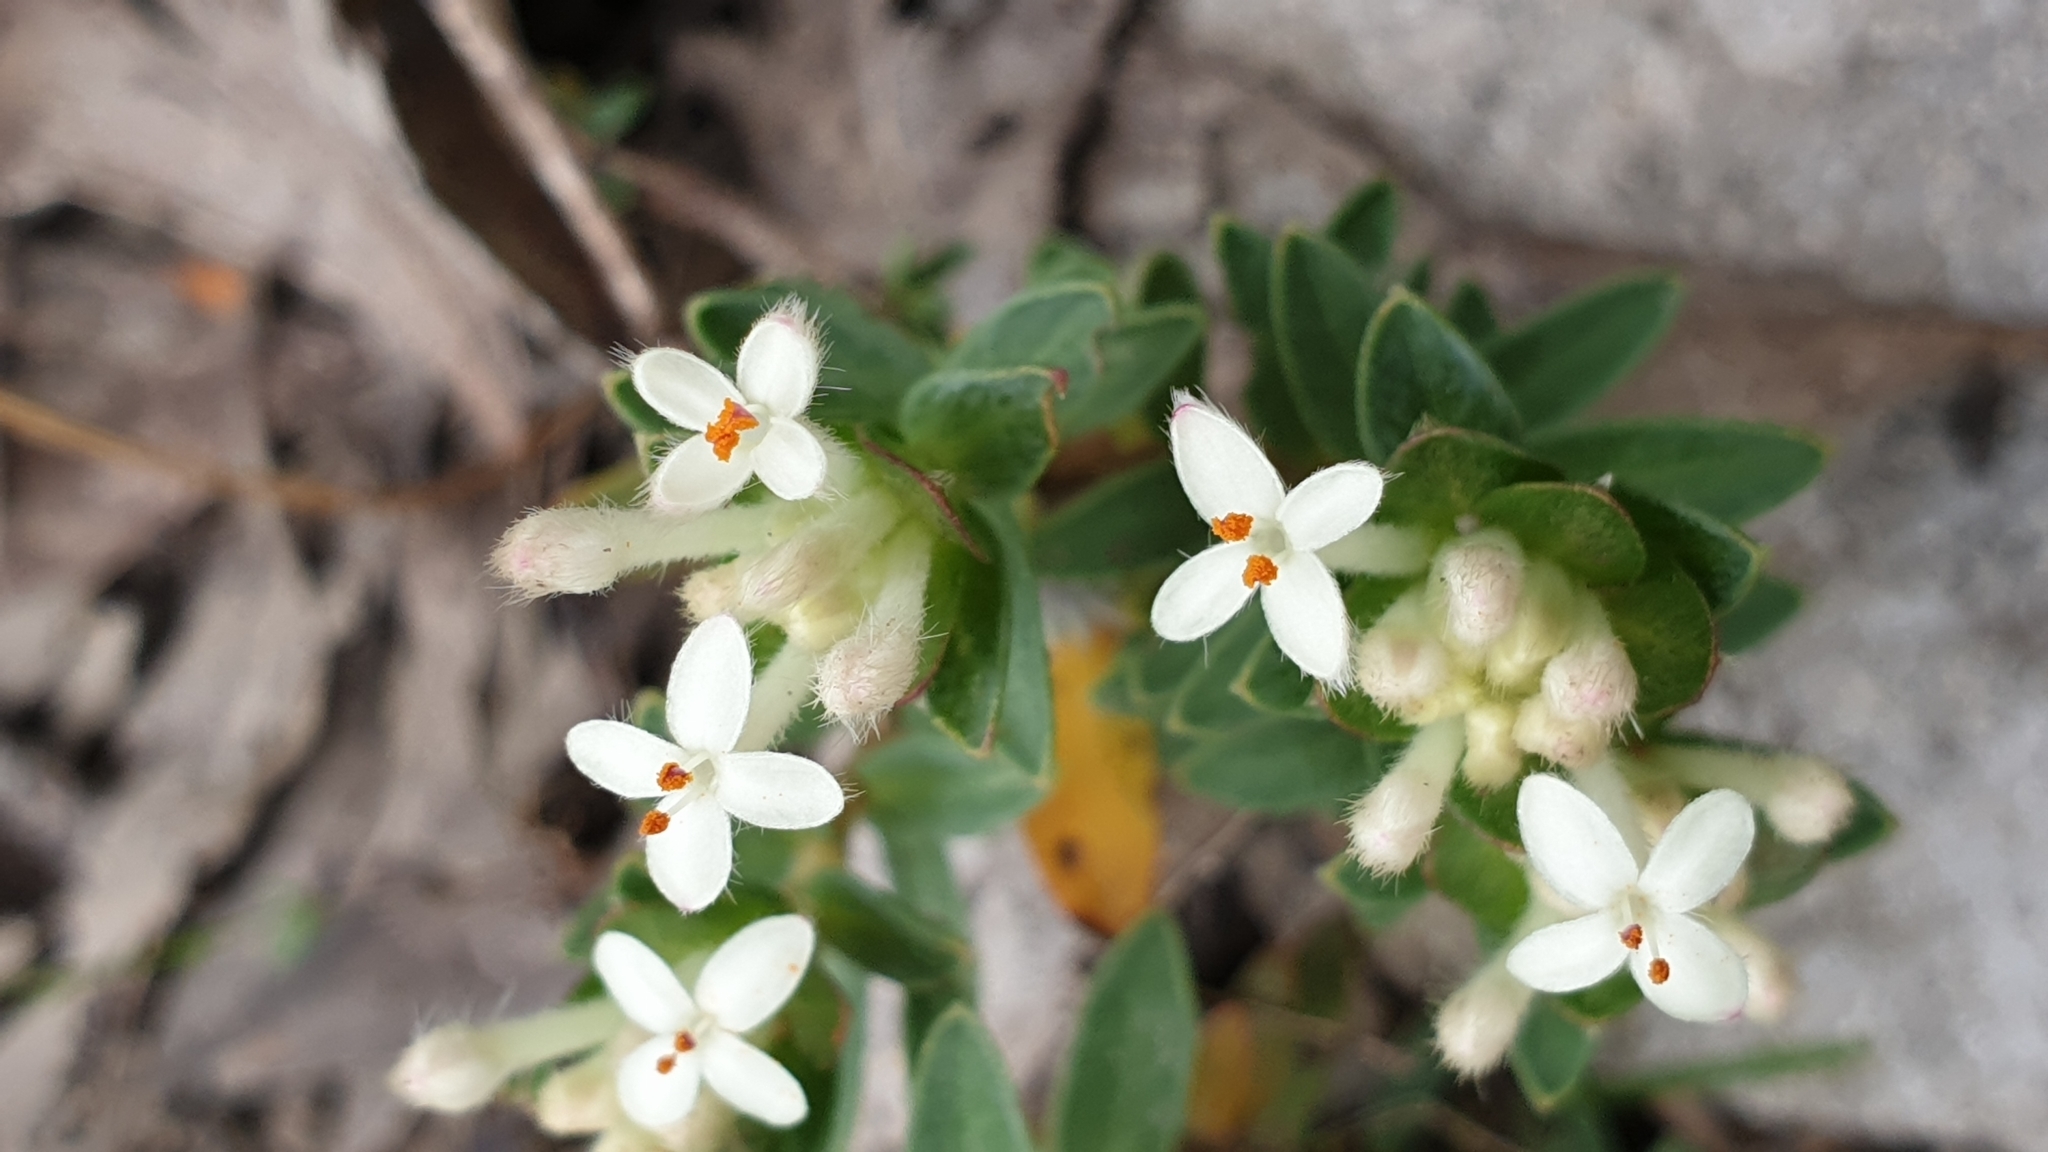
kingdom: Plantae
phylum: Tracheophyta
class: Magnoliopsida
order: Malvales
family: Thymelaeaceae
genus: Pimelea
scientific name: Pimelea humilis
